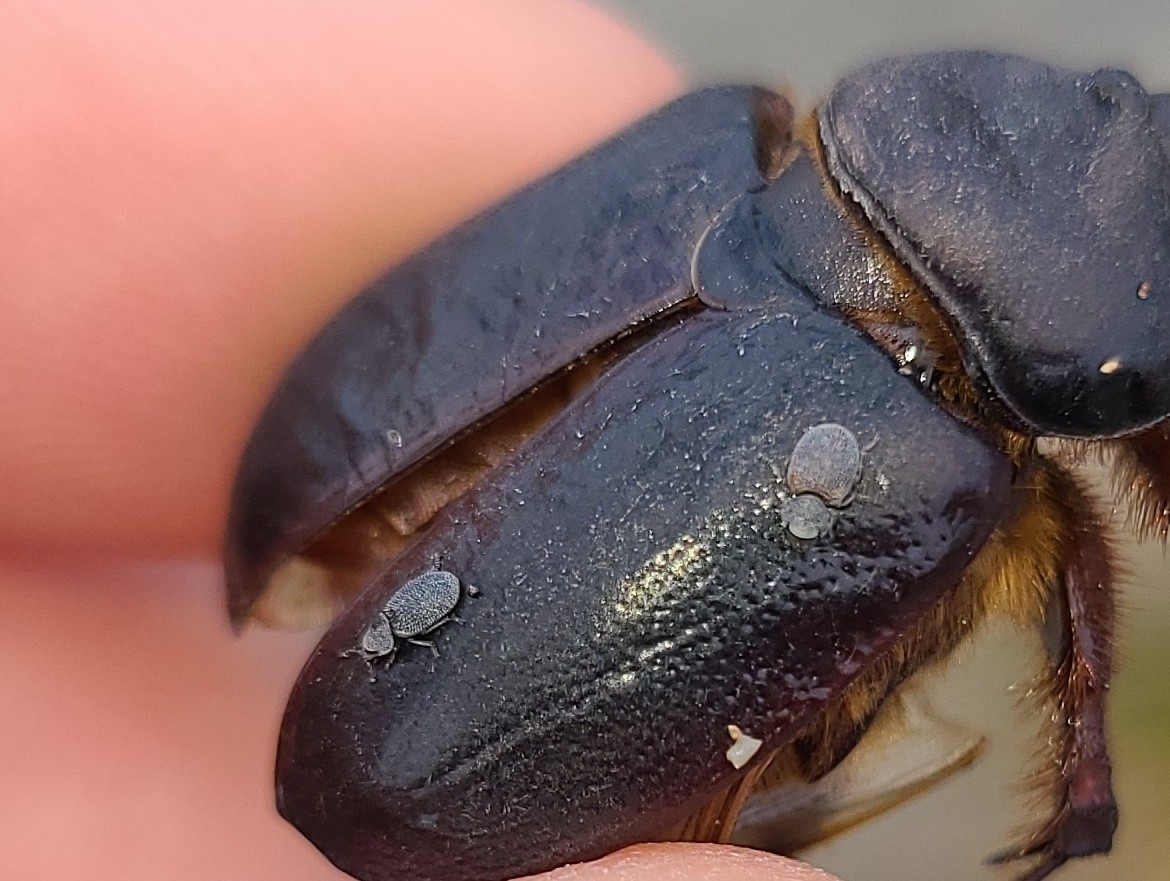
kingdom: Animalia
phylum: Arthropoda
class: Insecta
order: Coleoptera
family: Phycosecidae
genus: Phycosecis
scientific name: Phycosecis
